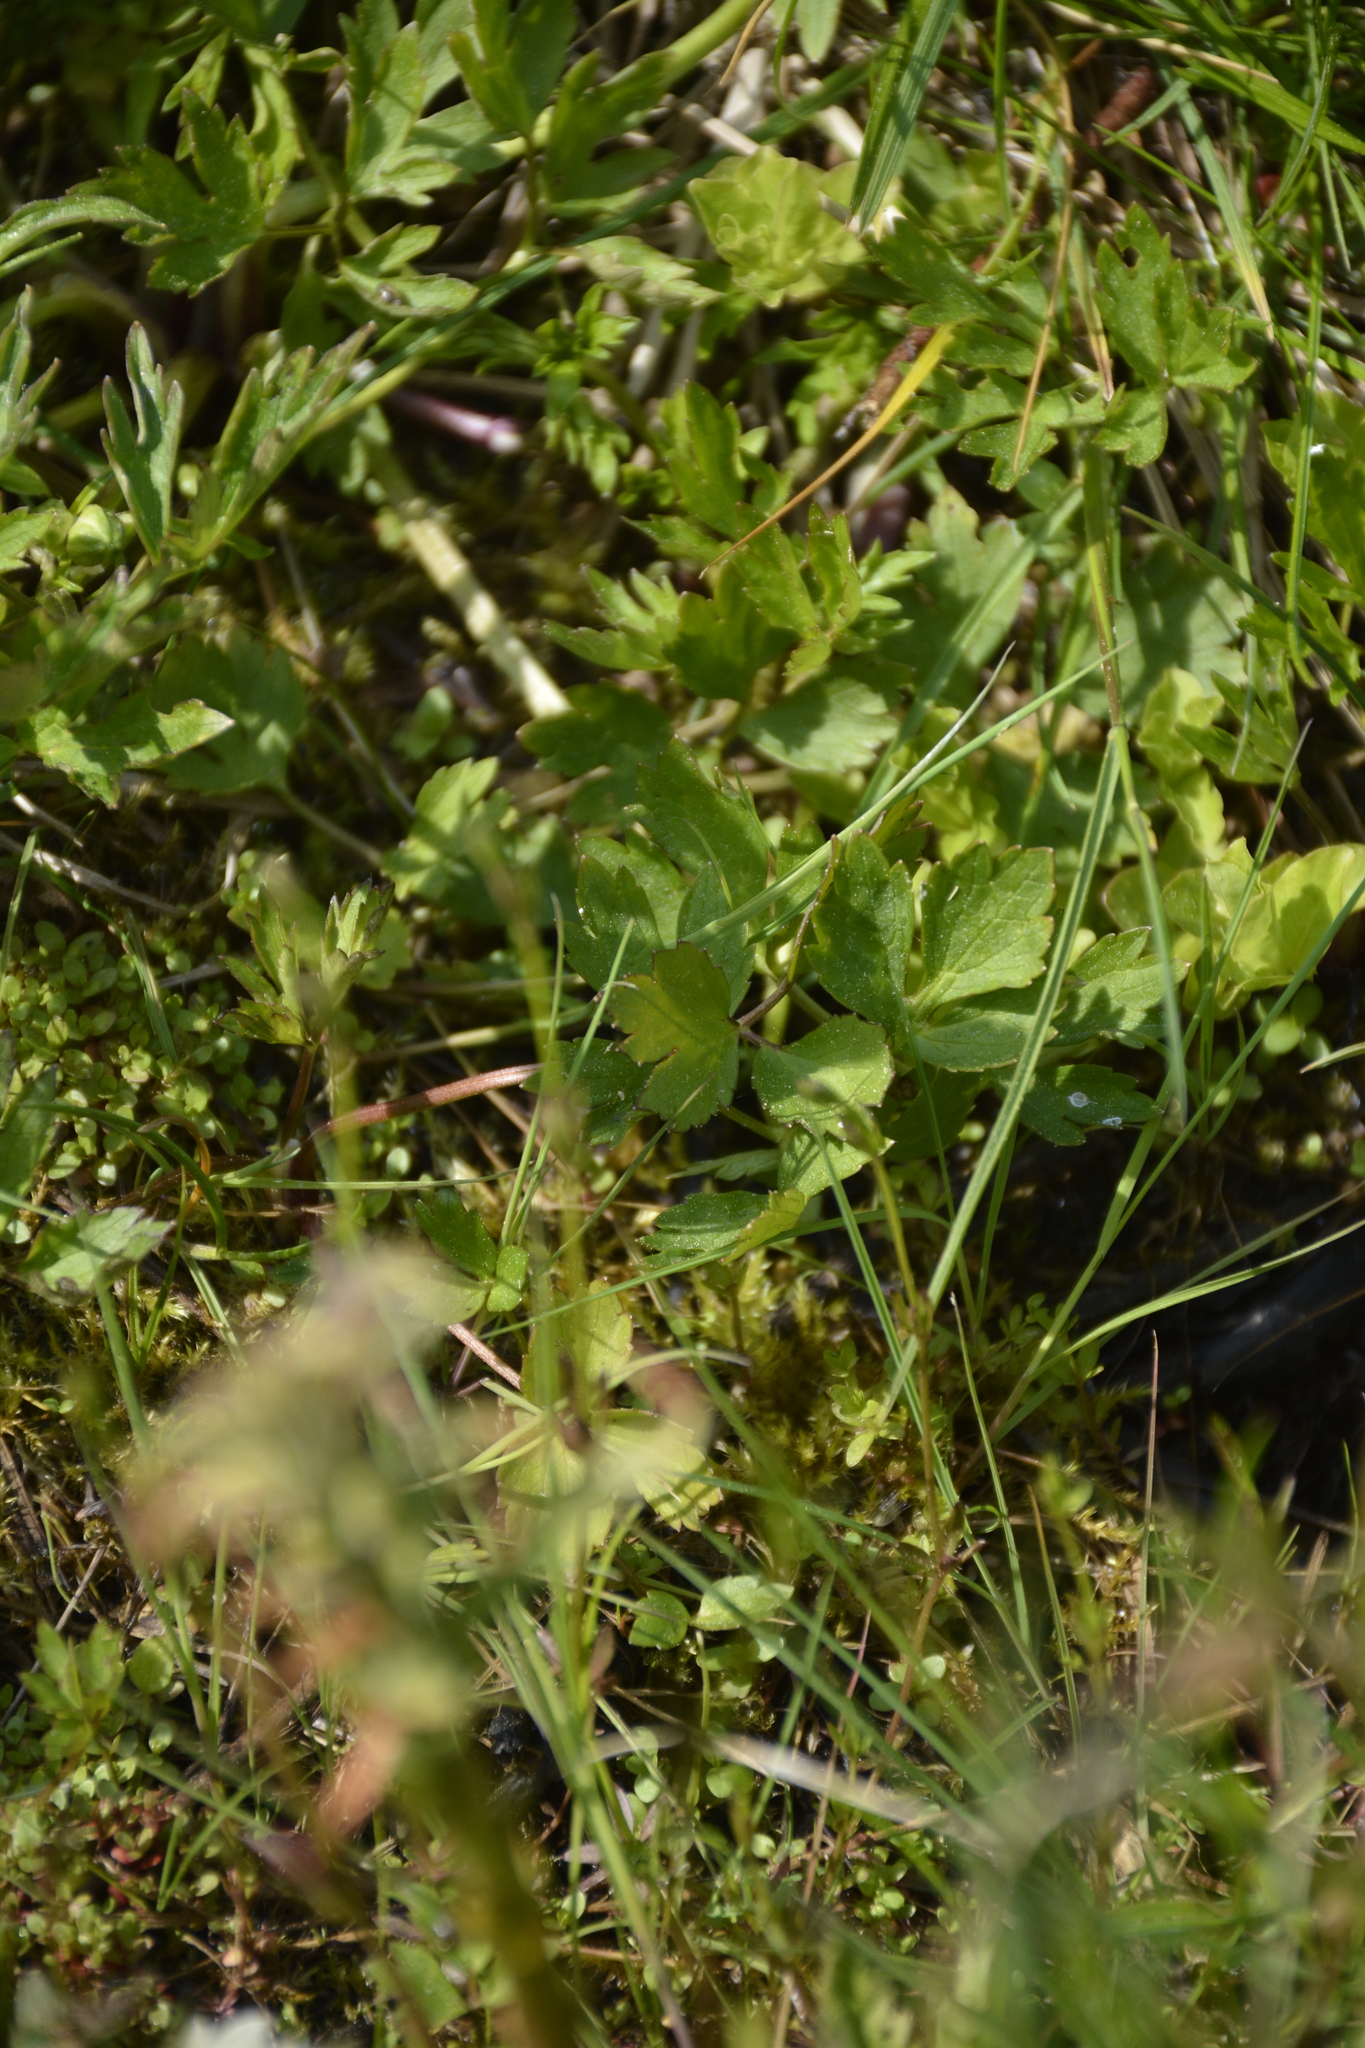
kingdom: Plantae
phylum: Tracheophyta
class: Magnoliopsida
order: Ranunculales
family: Ranunculaceae
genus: Ranunculus
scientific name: Ranunculus repens
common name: Creeping buttercup
